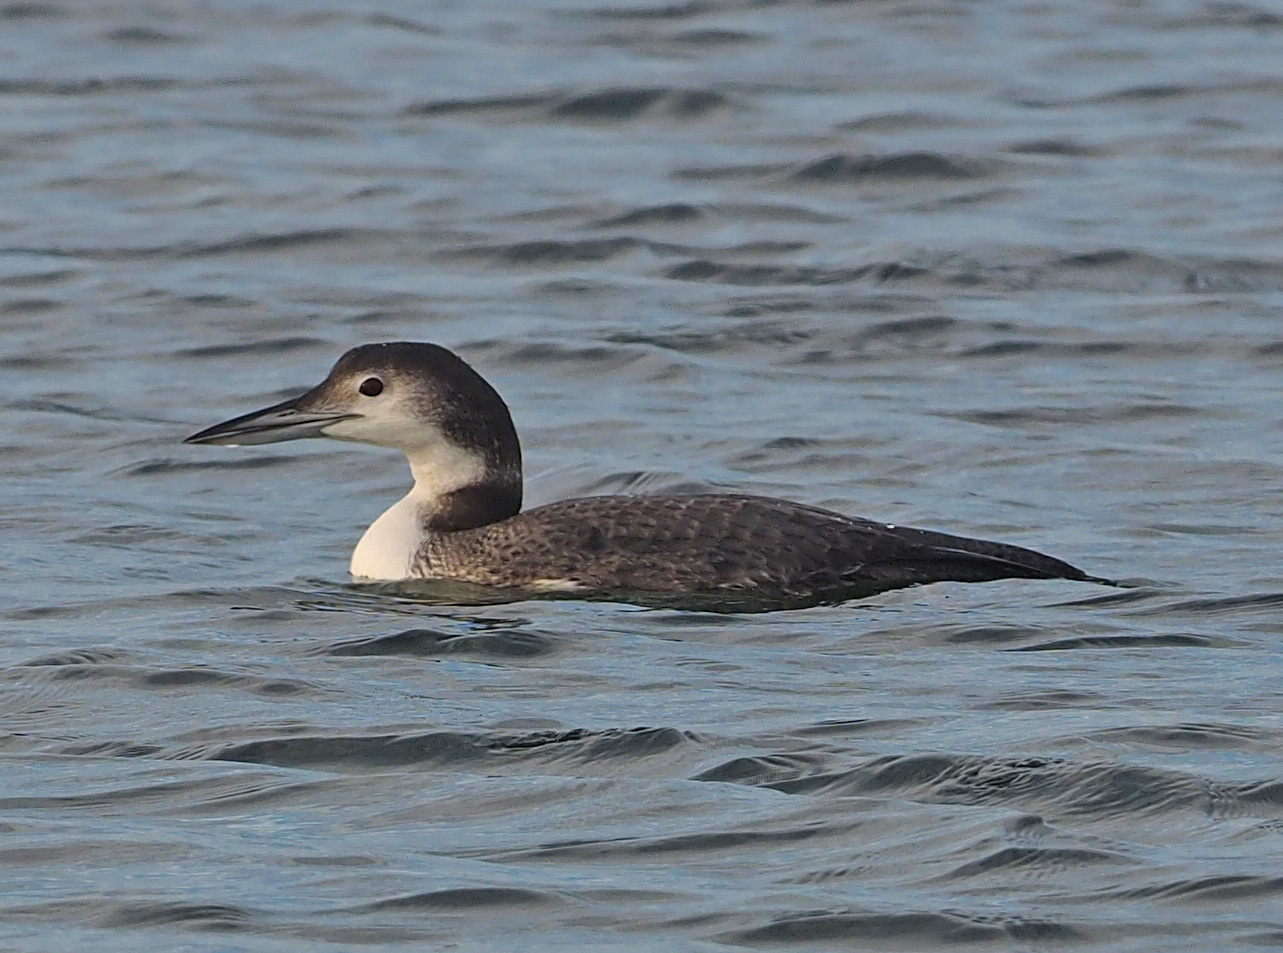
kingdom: Animalia
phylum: Chordata
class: Aves
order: Gaviiformes
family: Gaviidae
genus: Gavia
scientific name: Gavia immer
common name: Common loon
